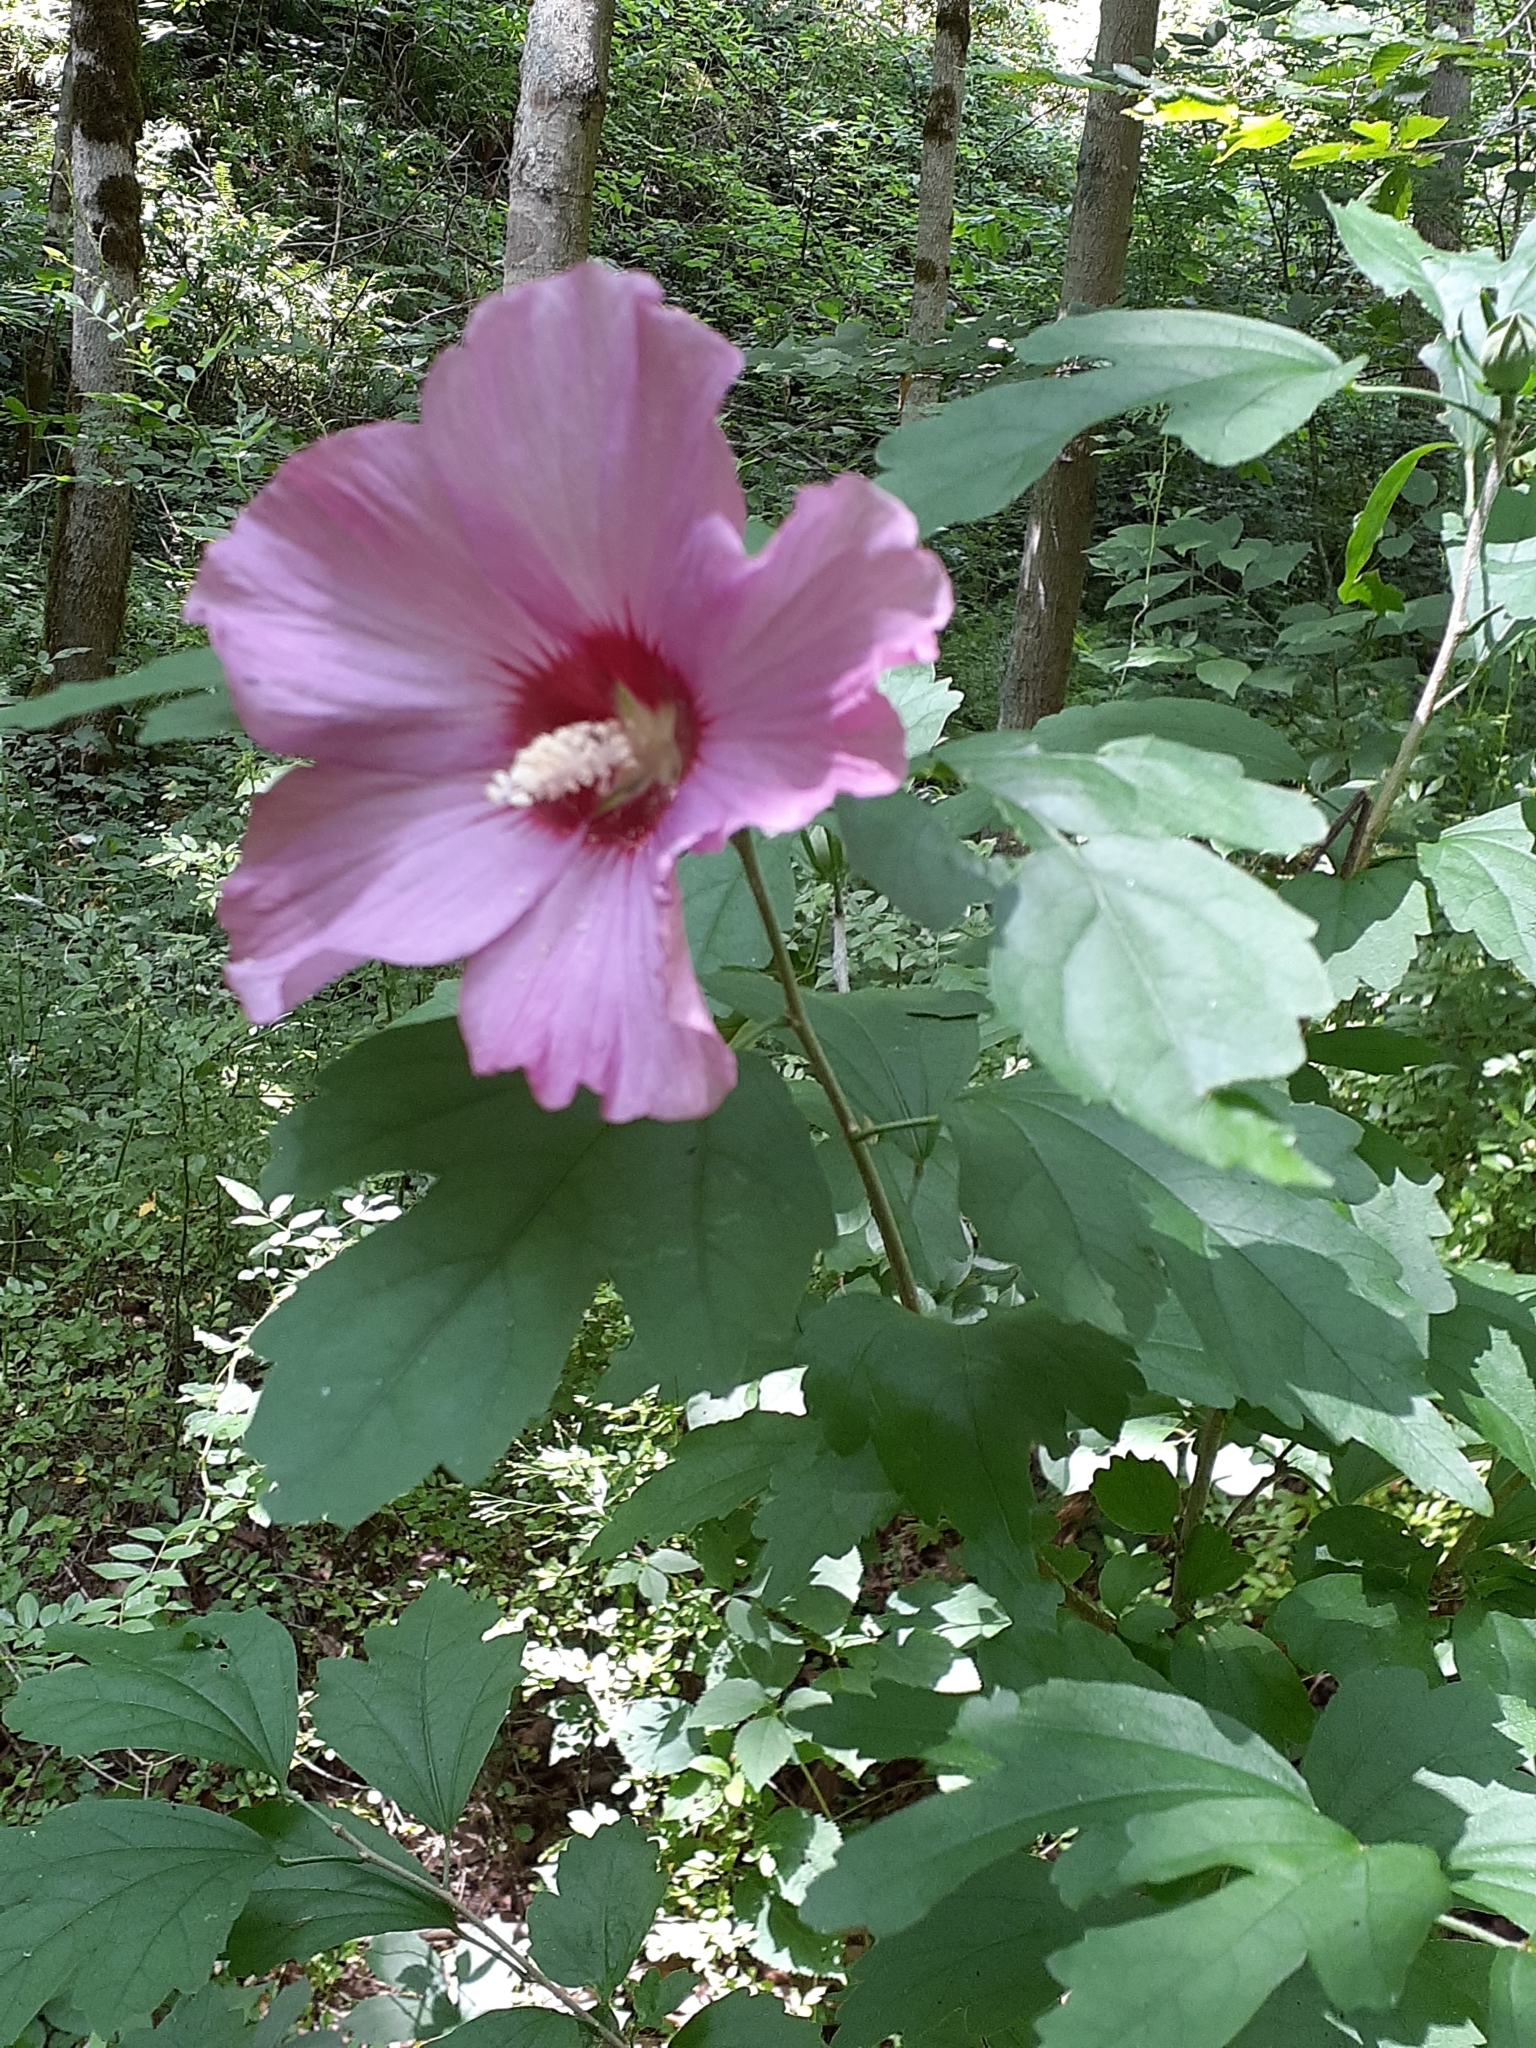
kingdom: Plantae
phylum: Tracheophyta
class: Magnoliopsida
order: Malvales
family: Malvaceae
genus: Hibiscus
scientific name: Hibiscus syriacus
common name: Syrian ketmia
